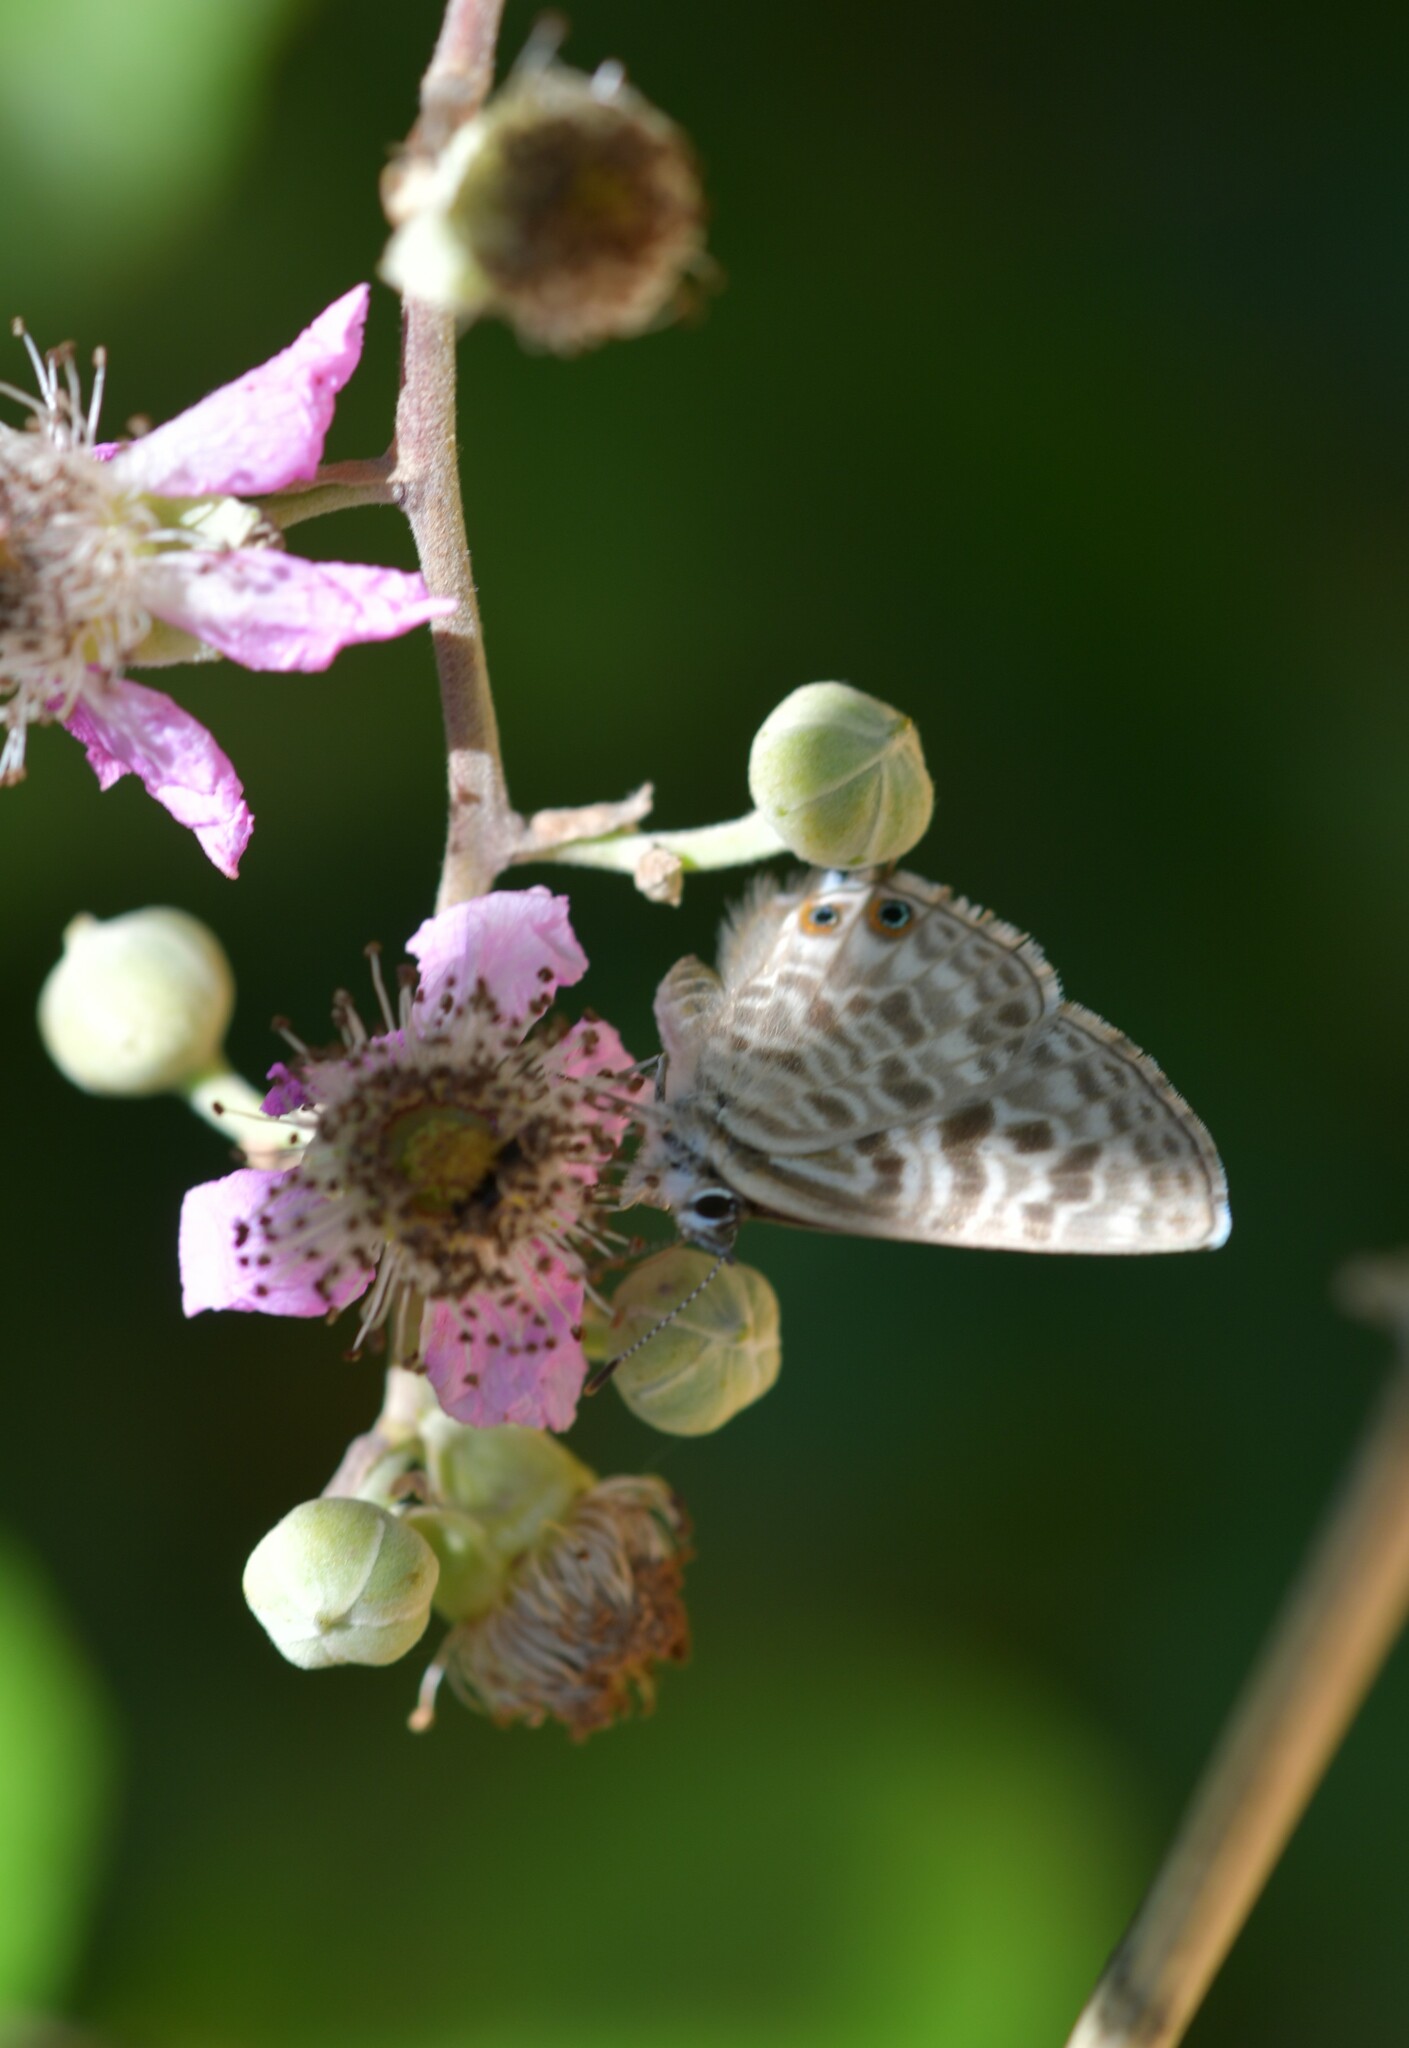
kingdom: Animalia
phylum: Arthropoda
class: Insecta
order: Lepidoptera
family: Lycaenidae
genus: Leptotes
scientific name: Leptotes pirithous
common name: Lang's short-tailed blue
